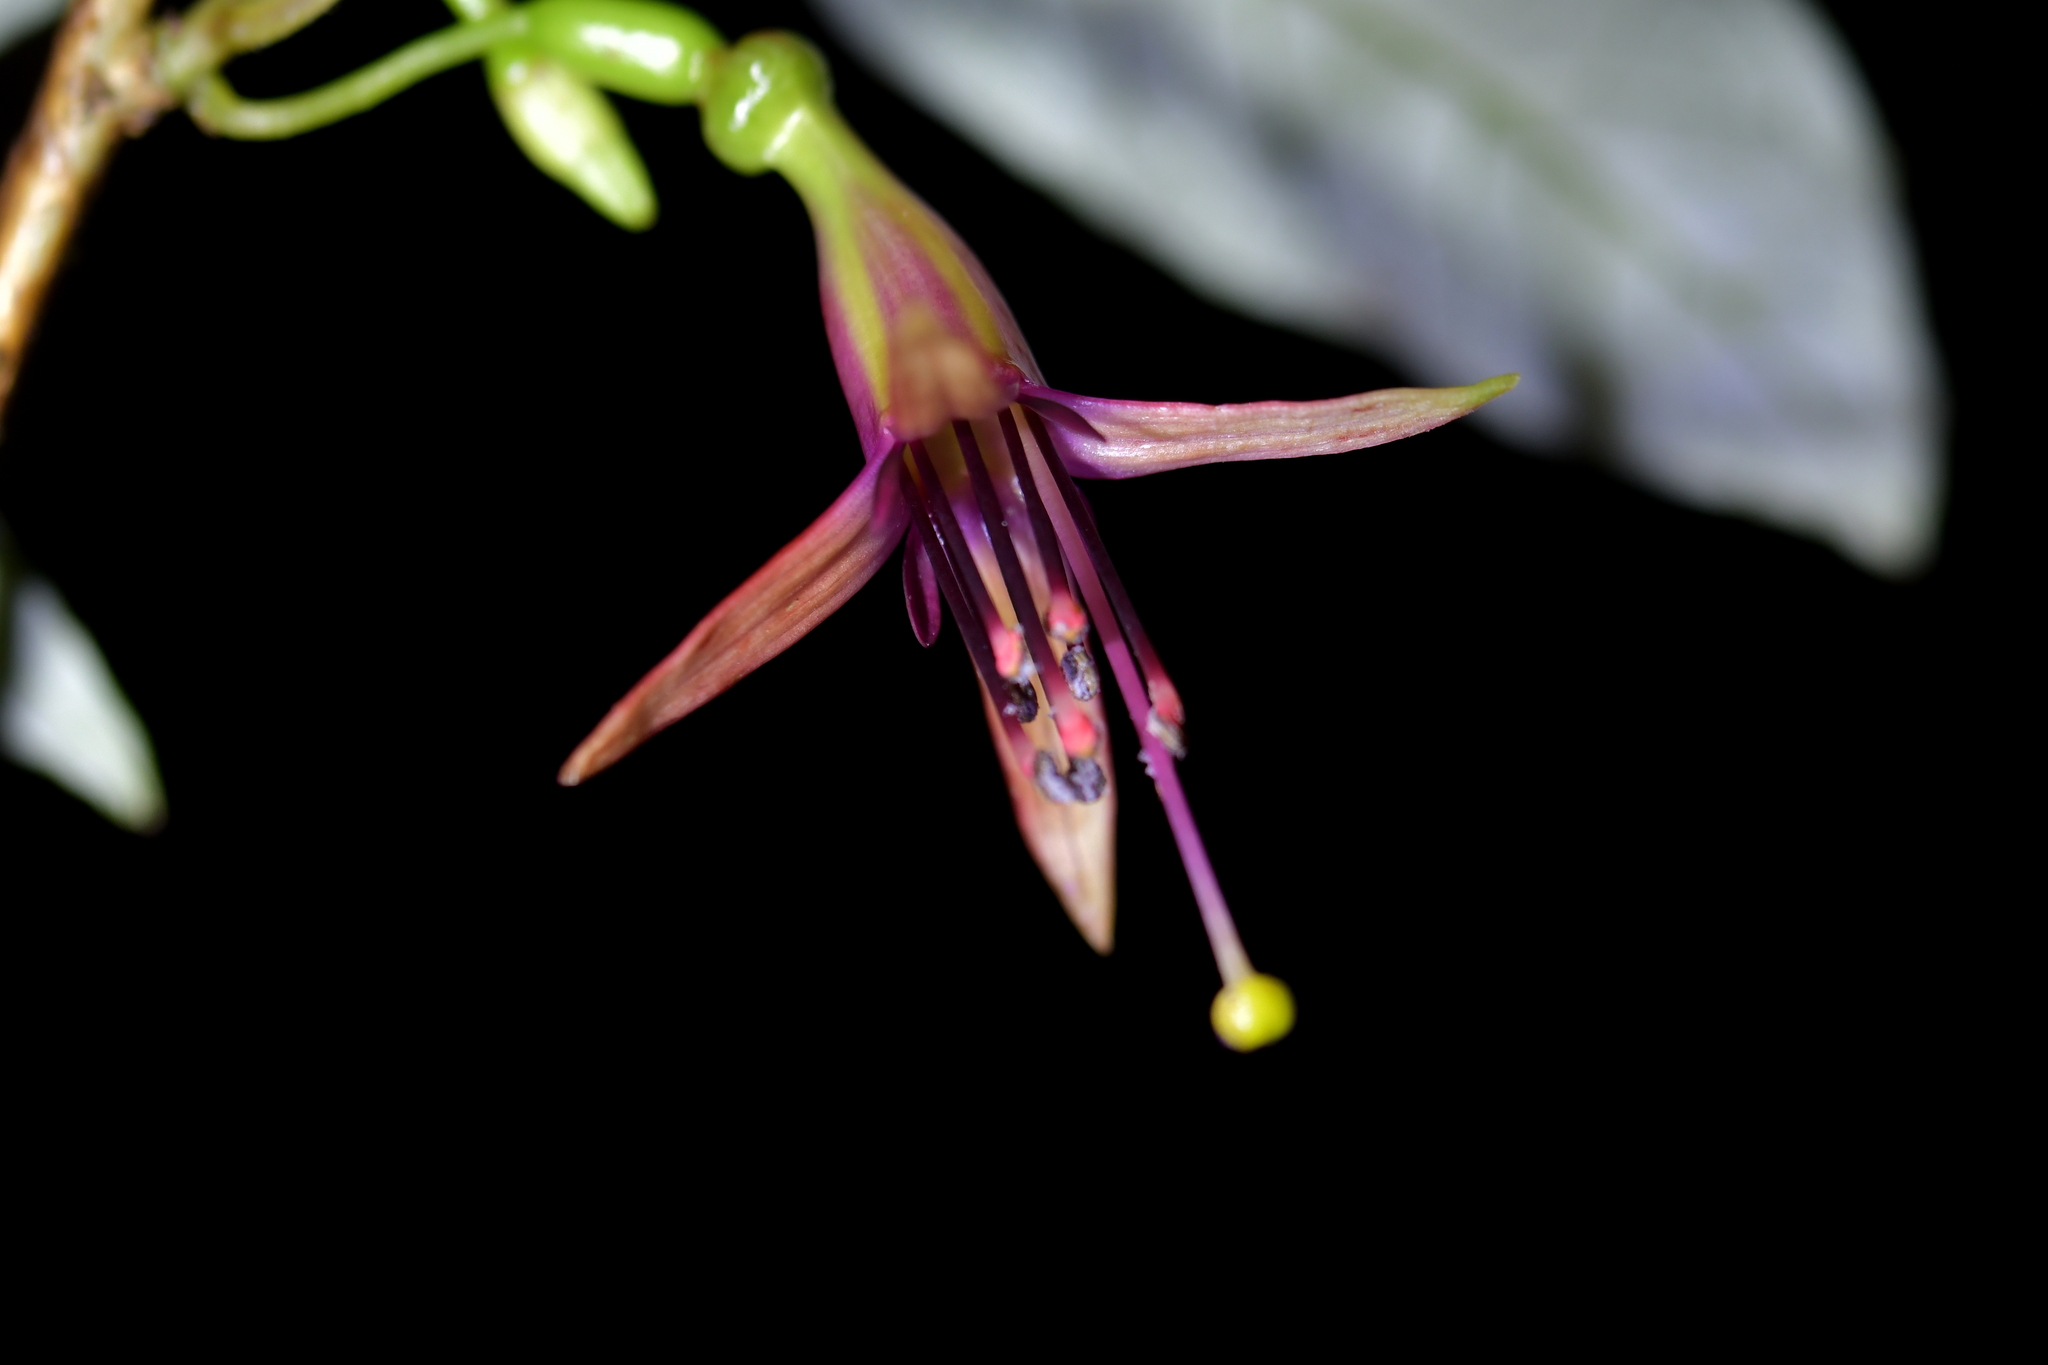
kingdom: Plantae
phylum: Tracheophyta
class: Magnoliopsida
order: Myrtales
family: Onagraceae
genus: Fuchsia
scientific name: Fuchsia excorticata
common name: Tree fuchsia
